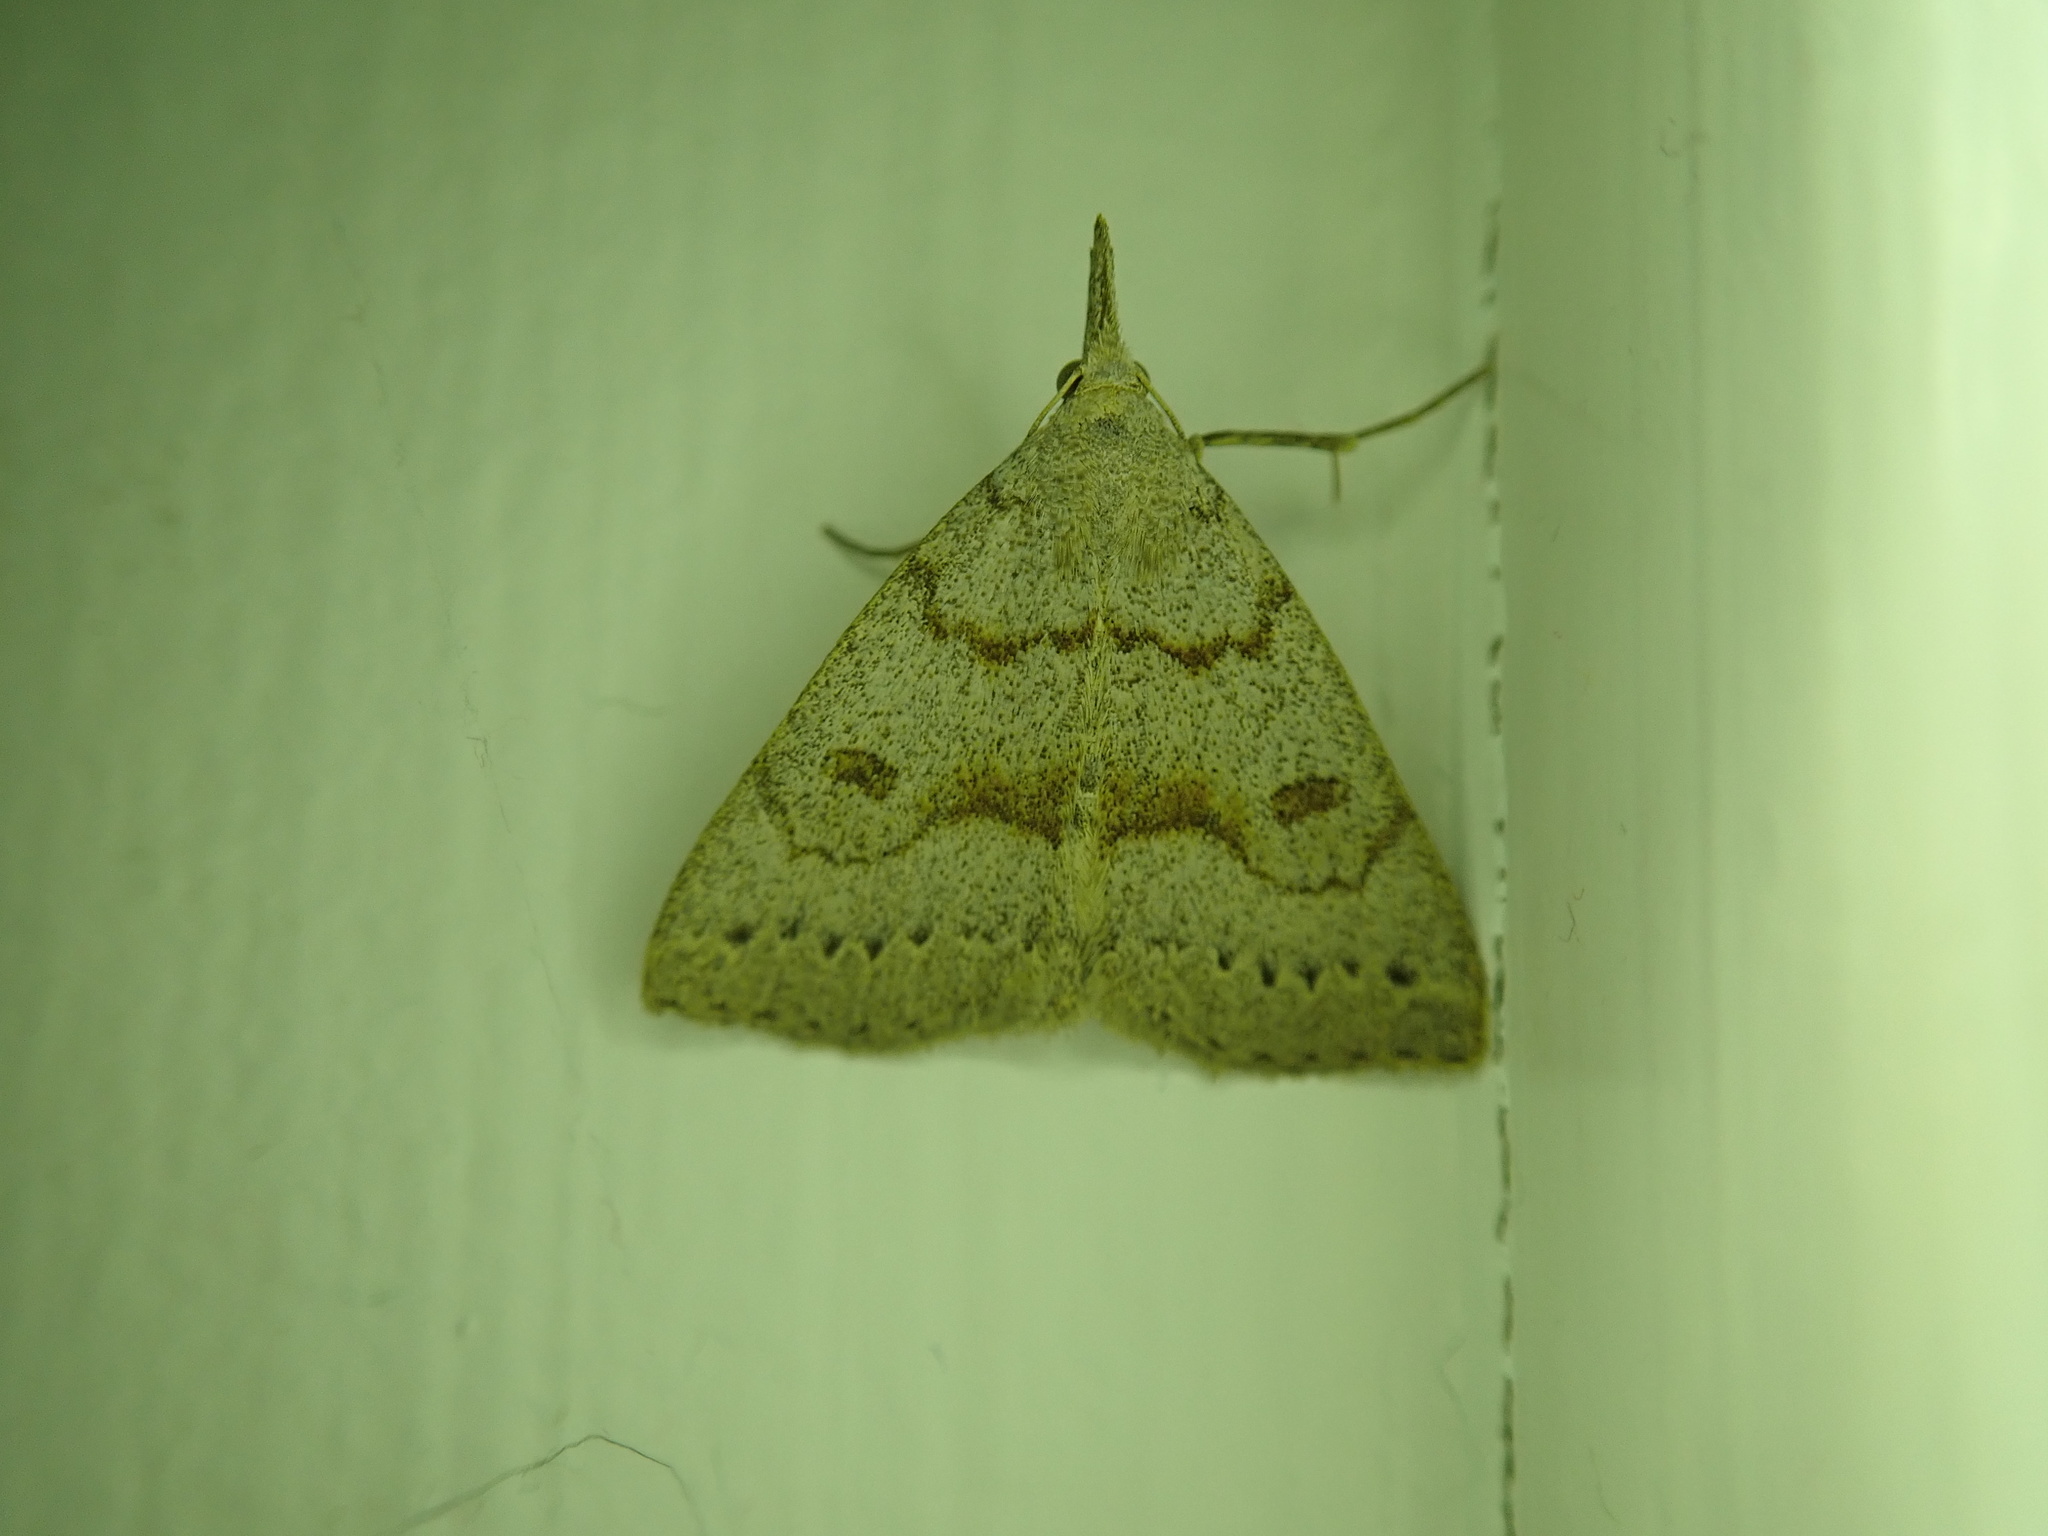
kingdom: Animalia
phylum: Arthropoda
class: Insecta
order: Lepidoptera
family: Erebidae
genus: Macrochilo
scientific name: Macrochilo morbidalis
